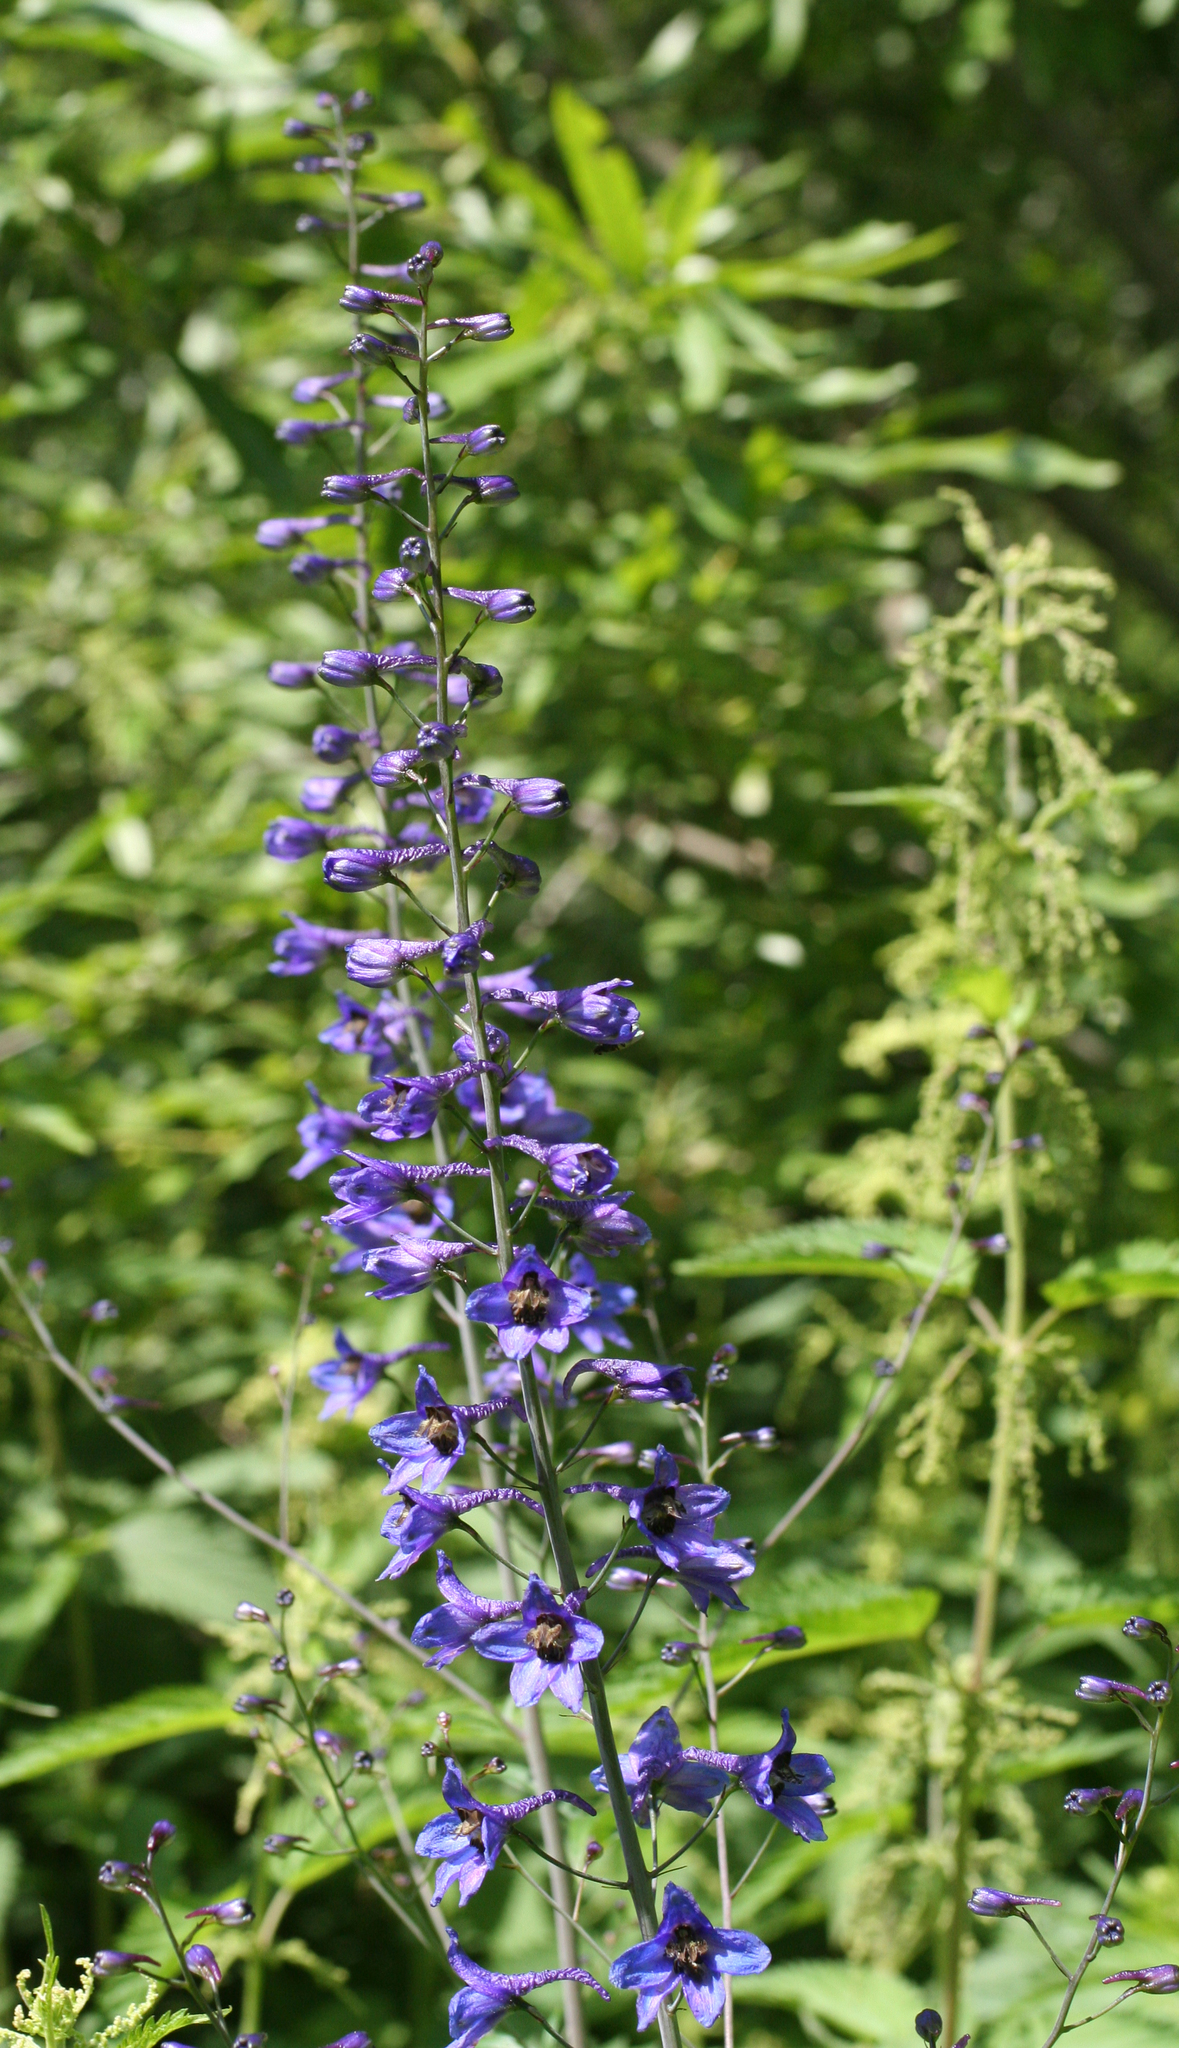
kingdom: Plantae
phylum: Tracheophyta
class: Magnoliopsida
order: Ranunculales
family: Ranunculaceae
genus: Delphinium
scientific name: Delphinium elatum
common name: Candle larkspur
